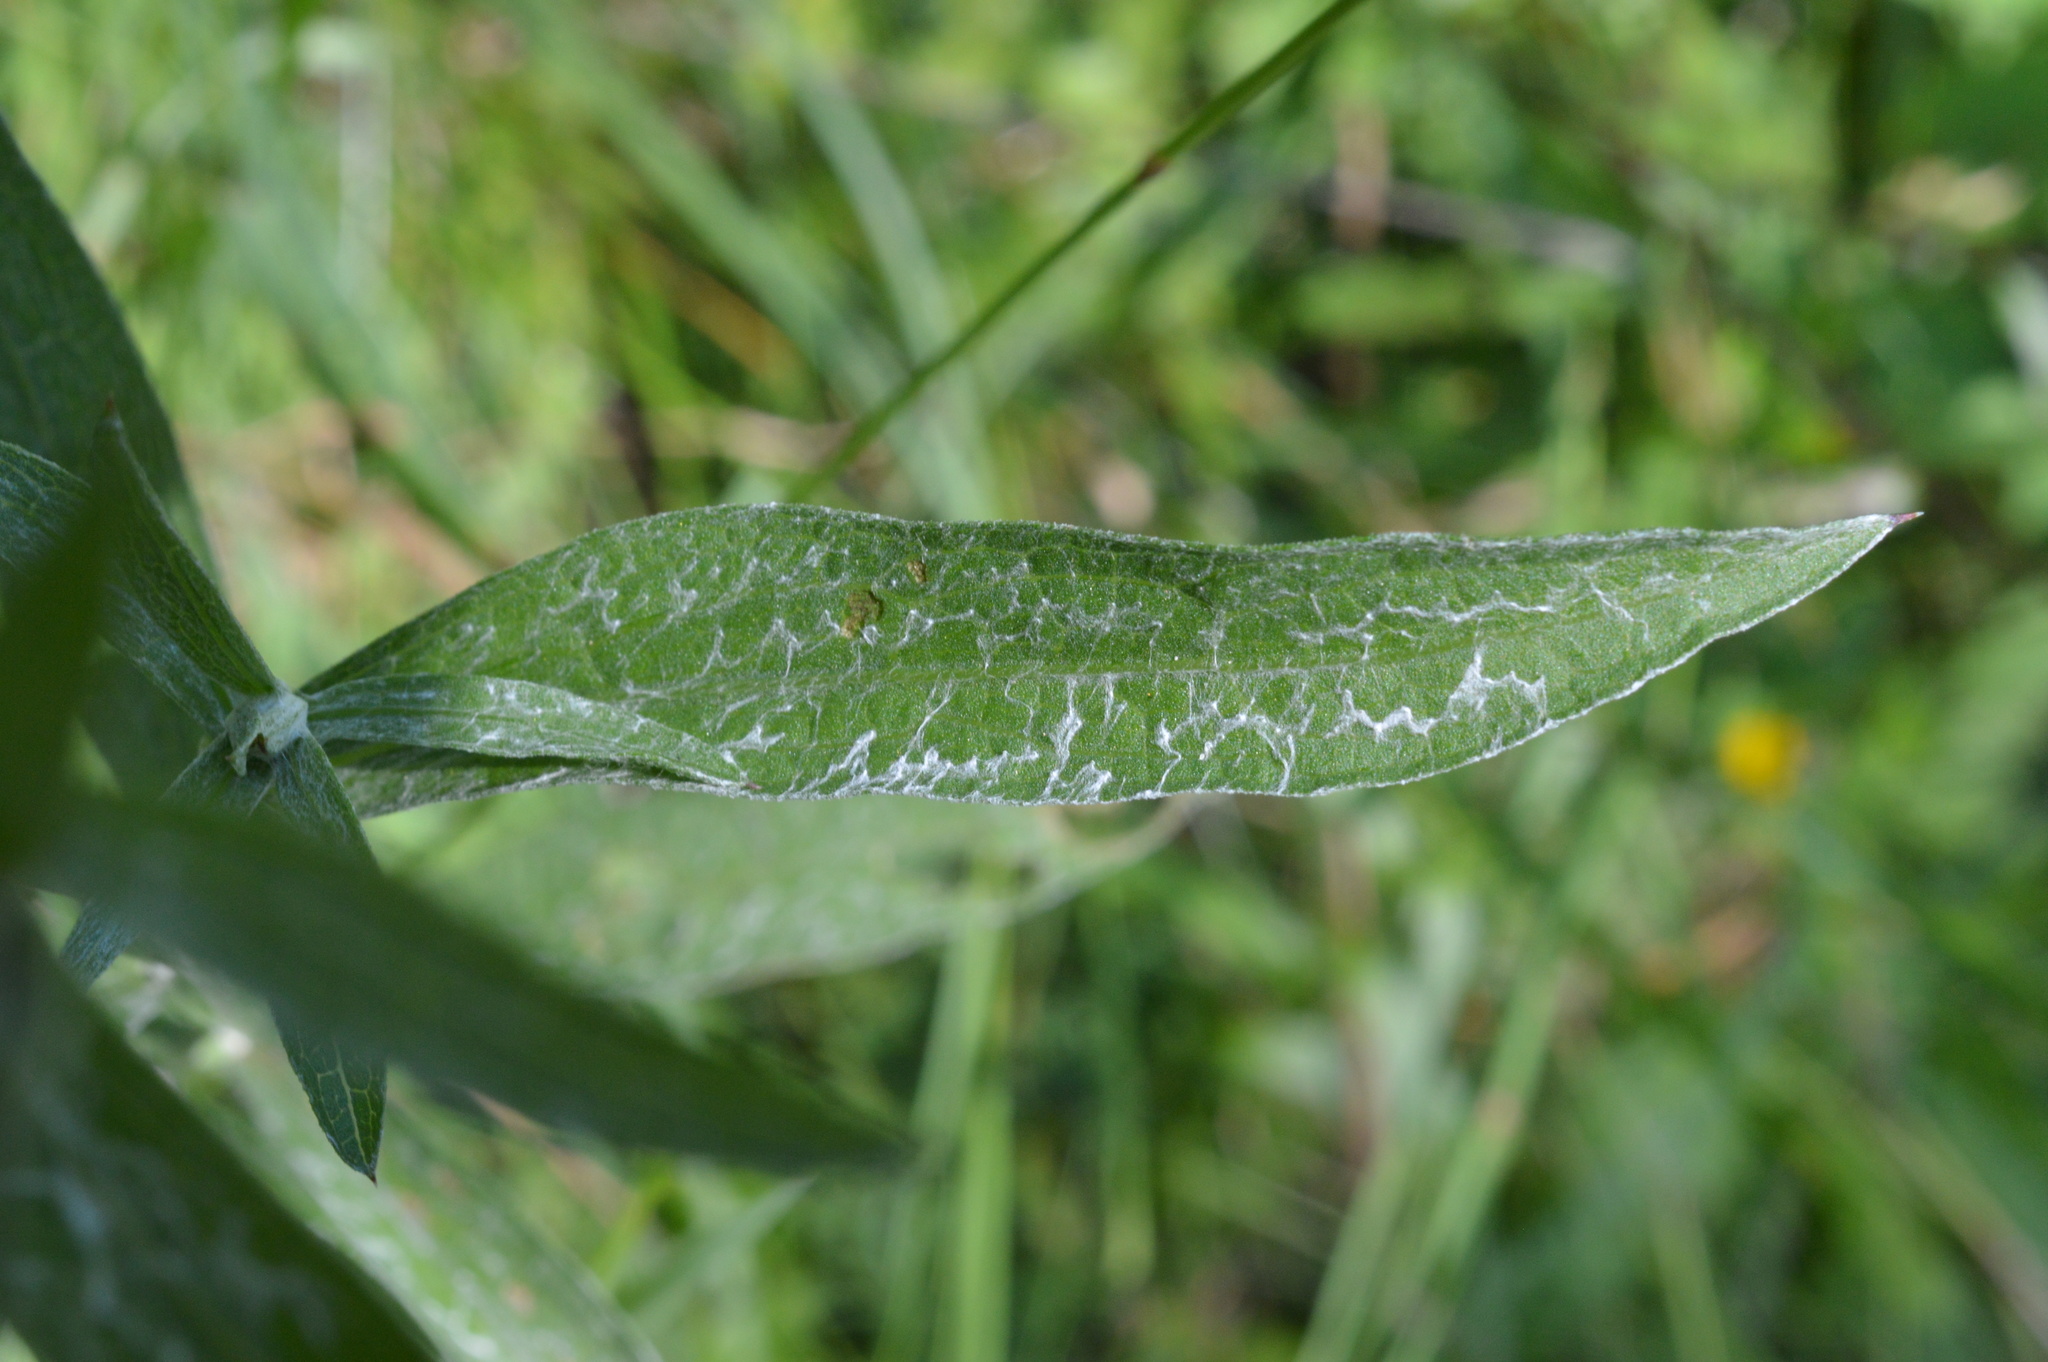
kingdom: Plantae
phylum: Tracheophyta
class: Magnoliopsida
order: Asterales
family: Asteraceae
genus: Centaurea
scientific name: Centaurea jacea
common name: Brown knapweed
